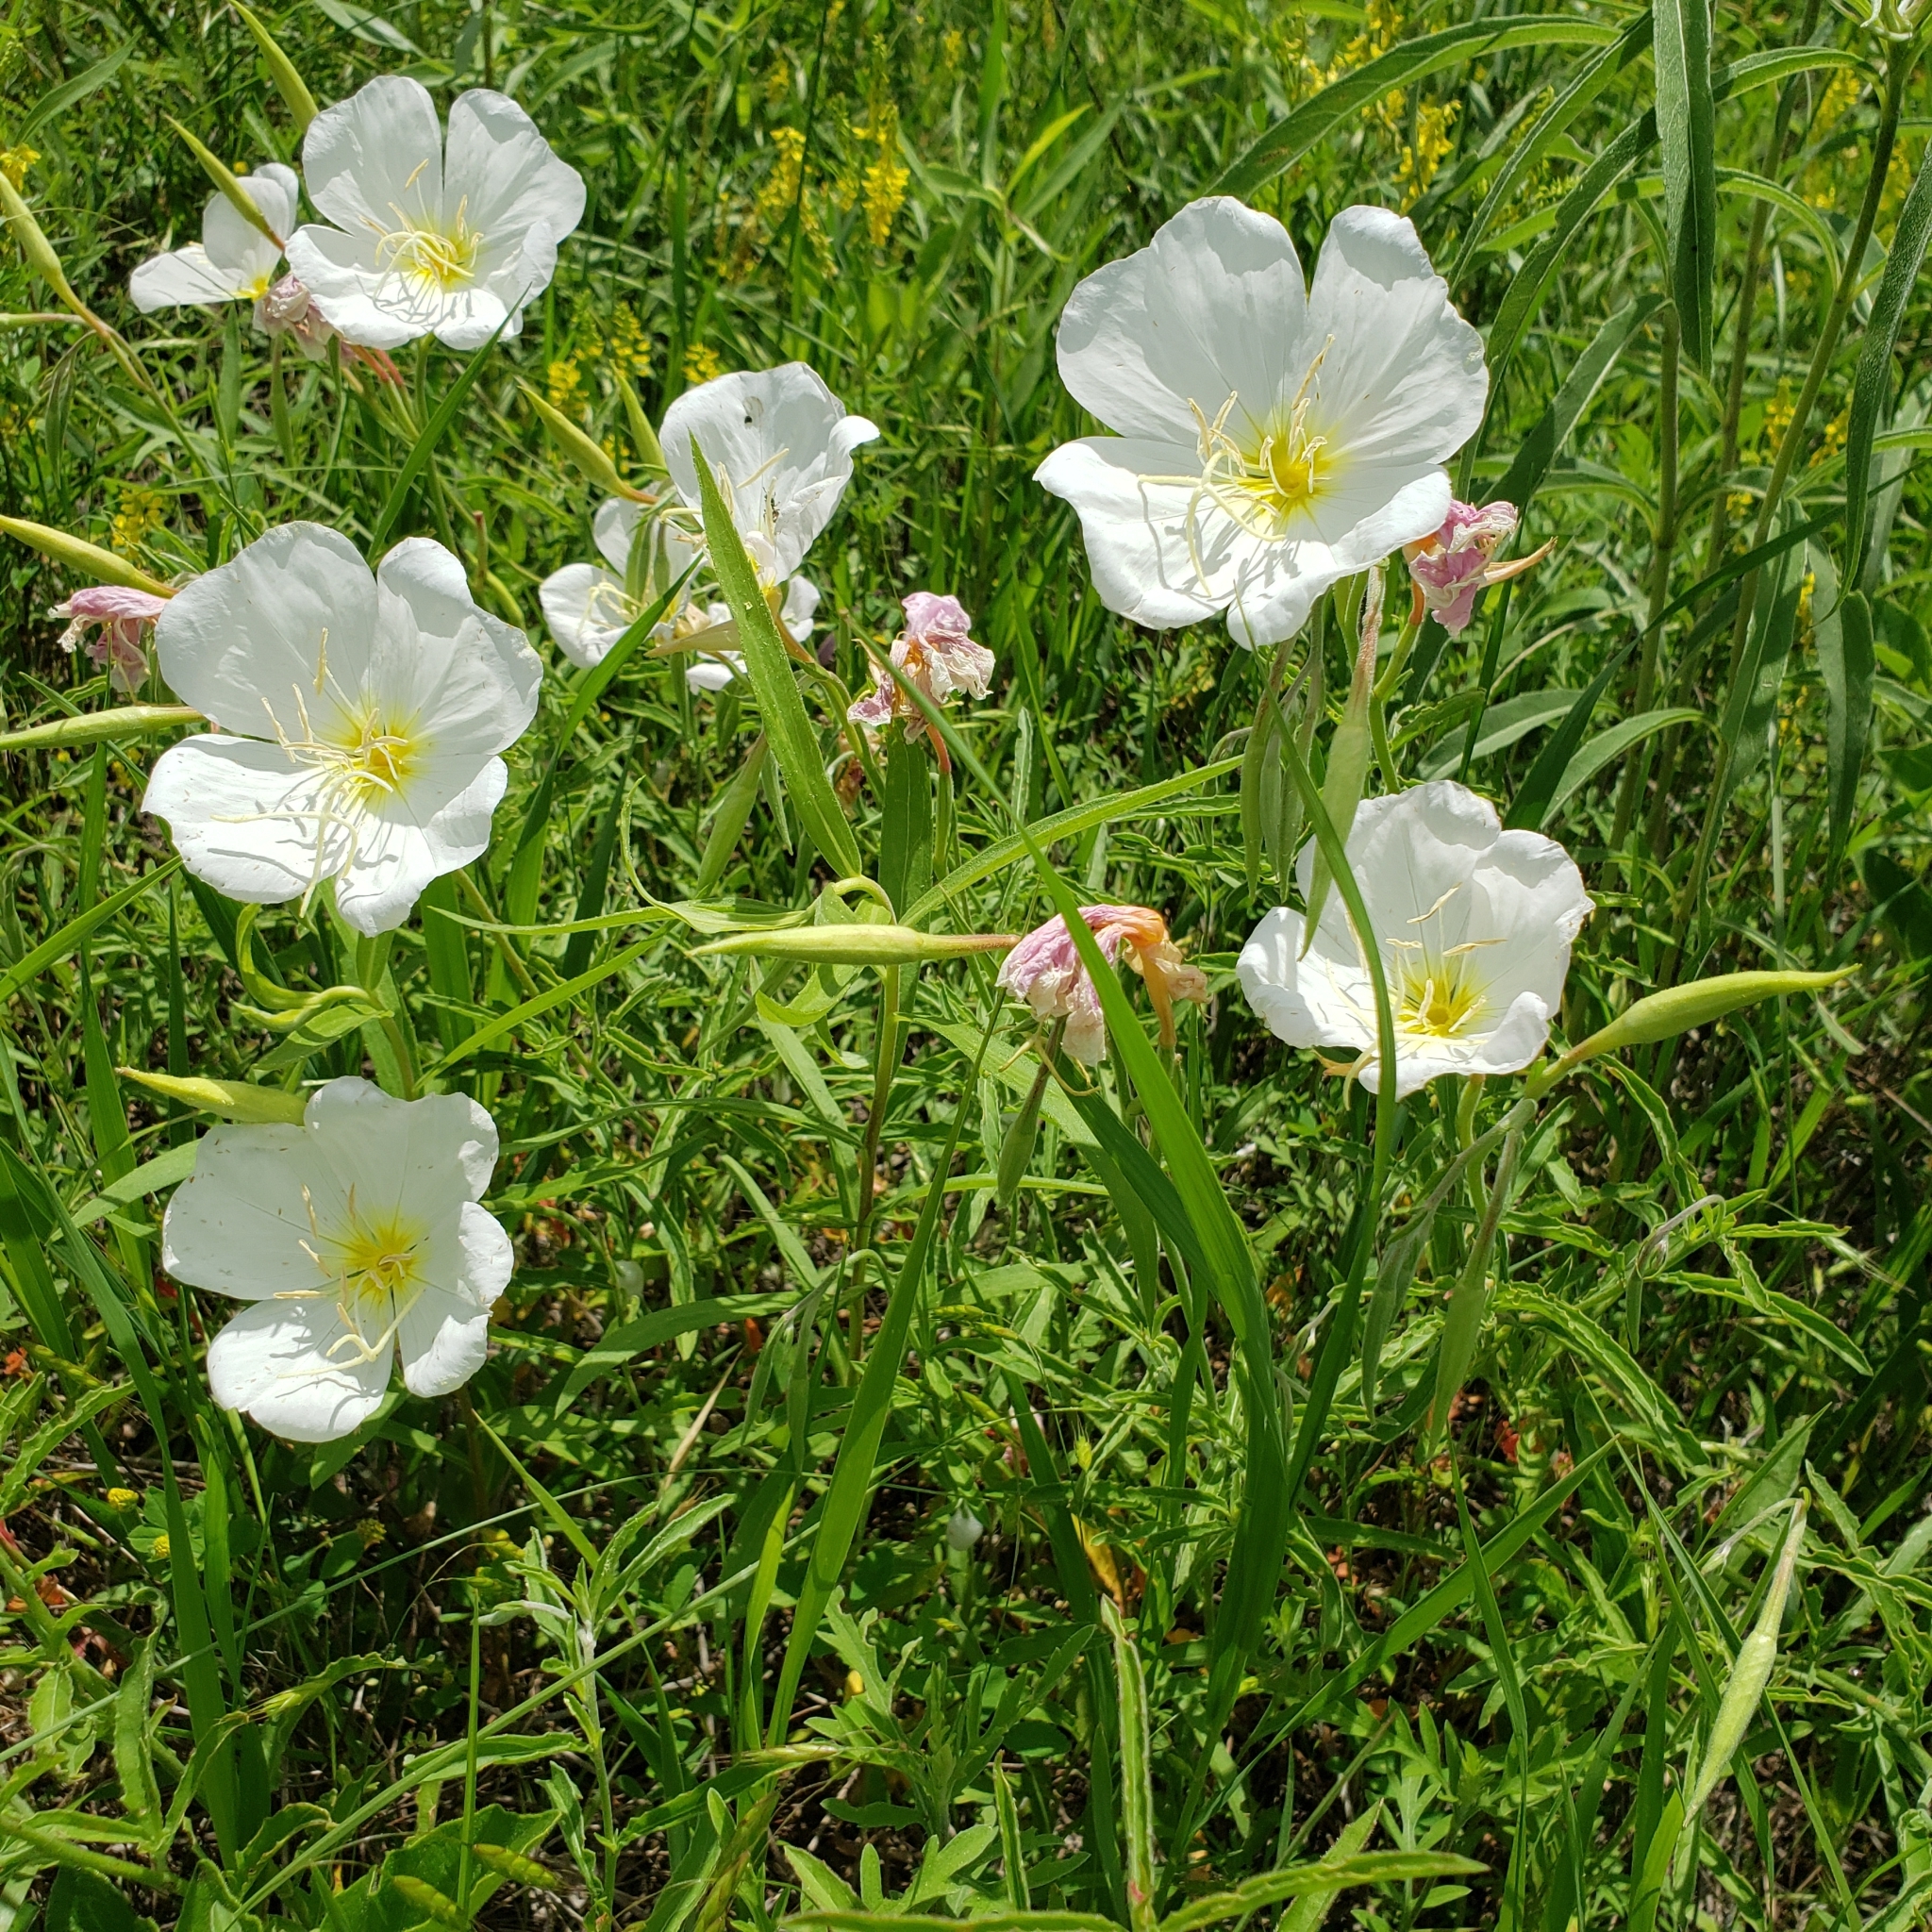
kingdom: Plantae
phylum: Tracheophyta
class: Magnoliopsida
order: Myrtales
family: Onagraceae
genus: Oenothera
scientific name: Oenothera speciosa
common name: White evening-primrose
